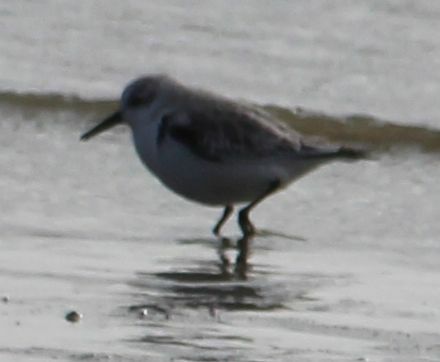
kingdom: Animalia
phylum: Chordata
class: Aves
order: Charadriiformes
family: Scolopacidae
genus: Calidris
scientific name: Calidris alba
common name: Sanderling
